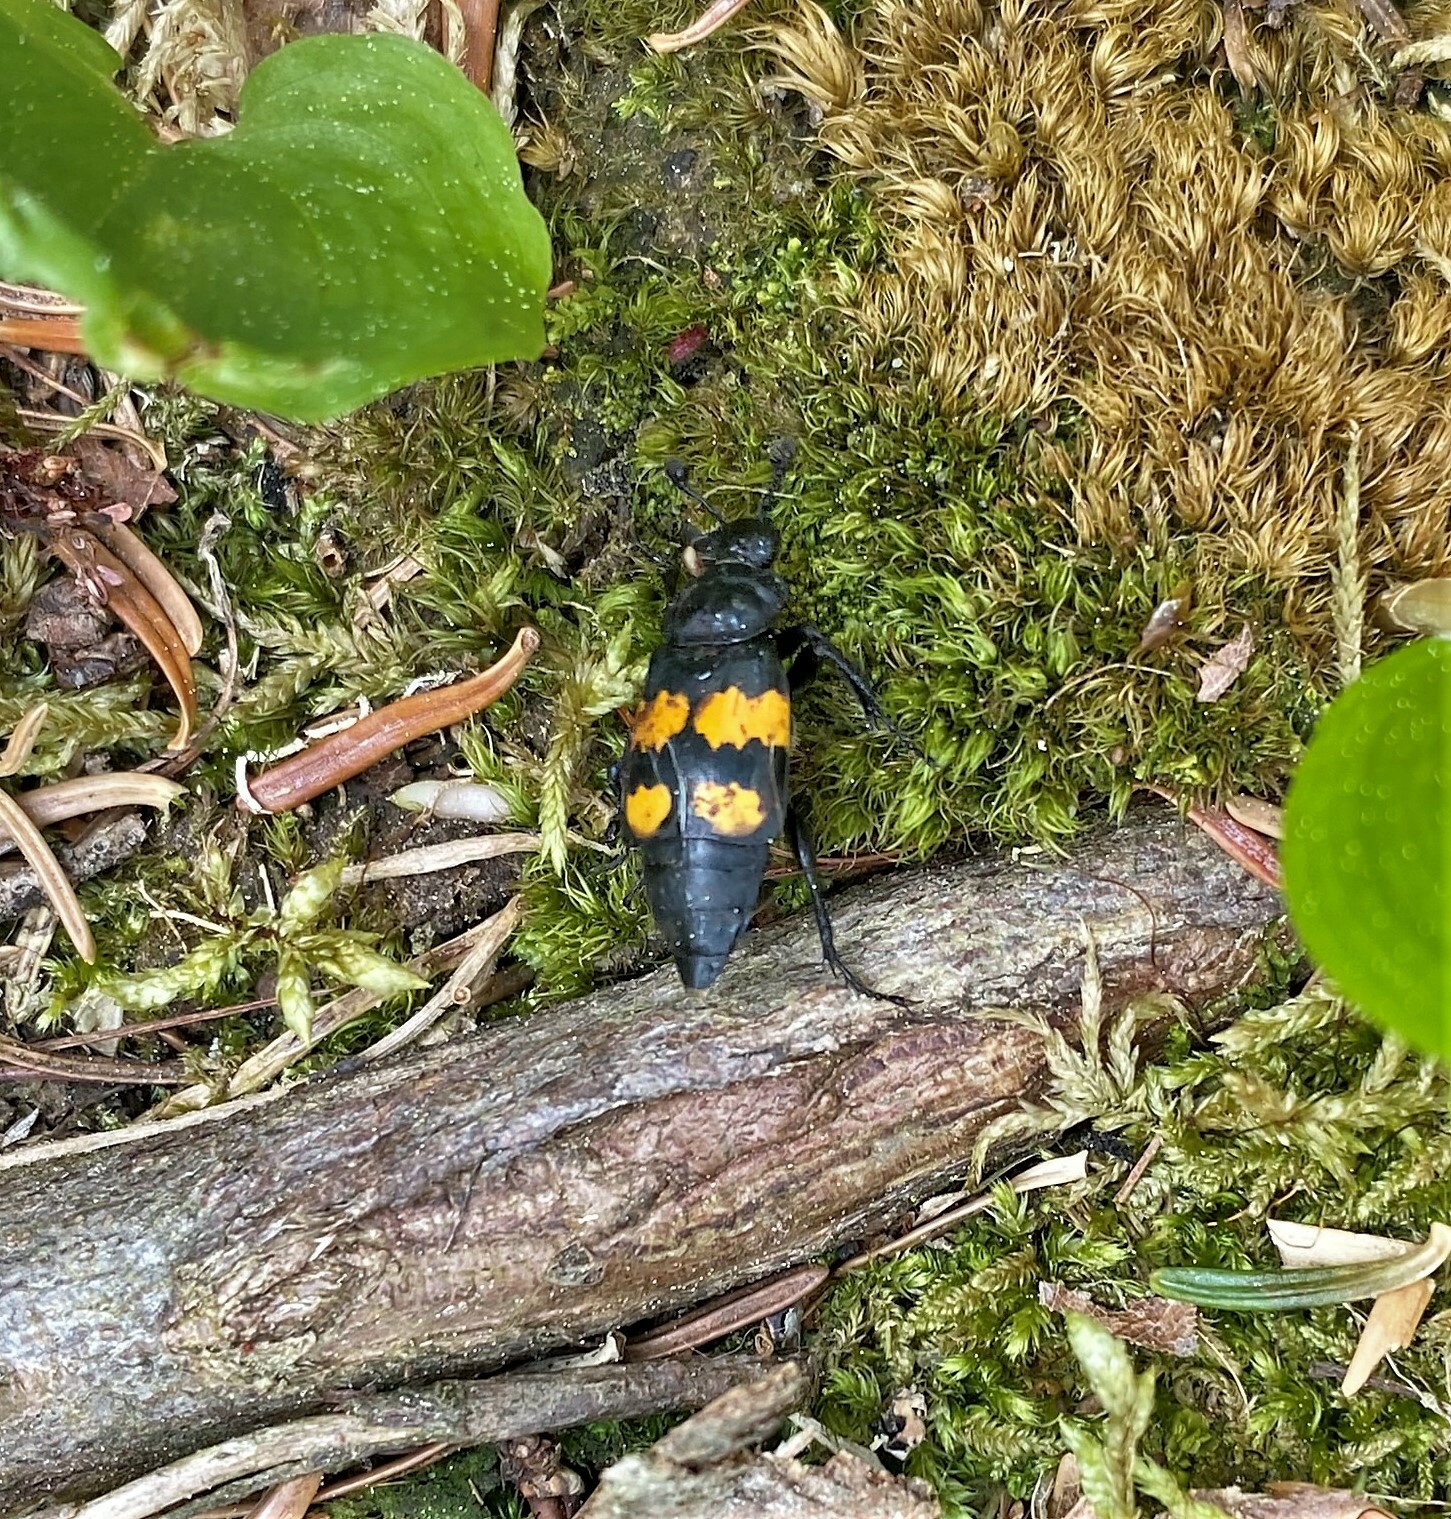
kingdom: Animalia
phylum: Arthropoda
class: Insecta
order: Coleoptera
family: Staphylinidae
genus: Nicrophorus
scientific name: Nicrophorus defodiens
